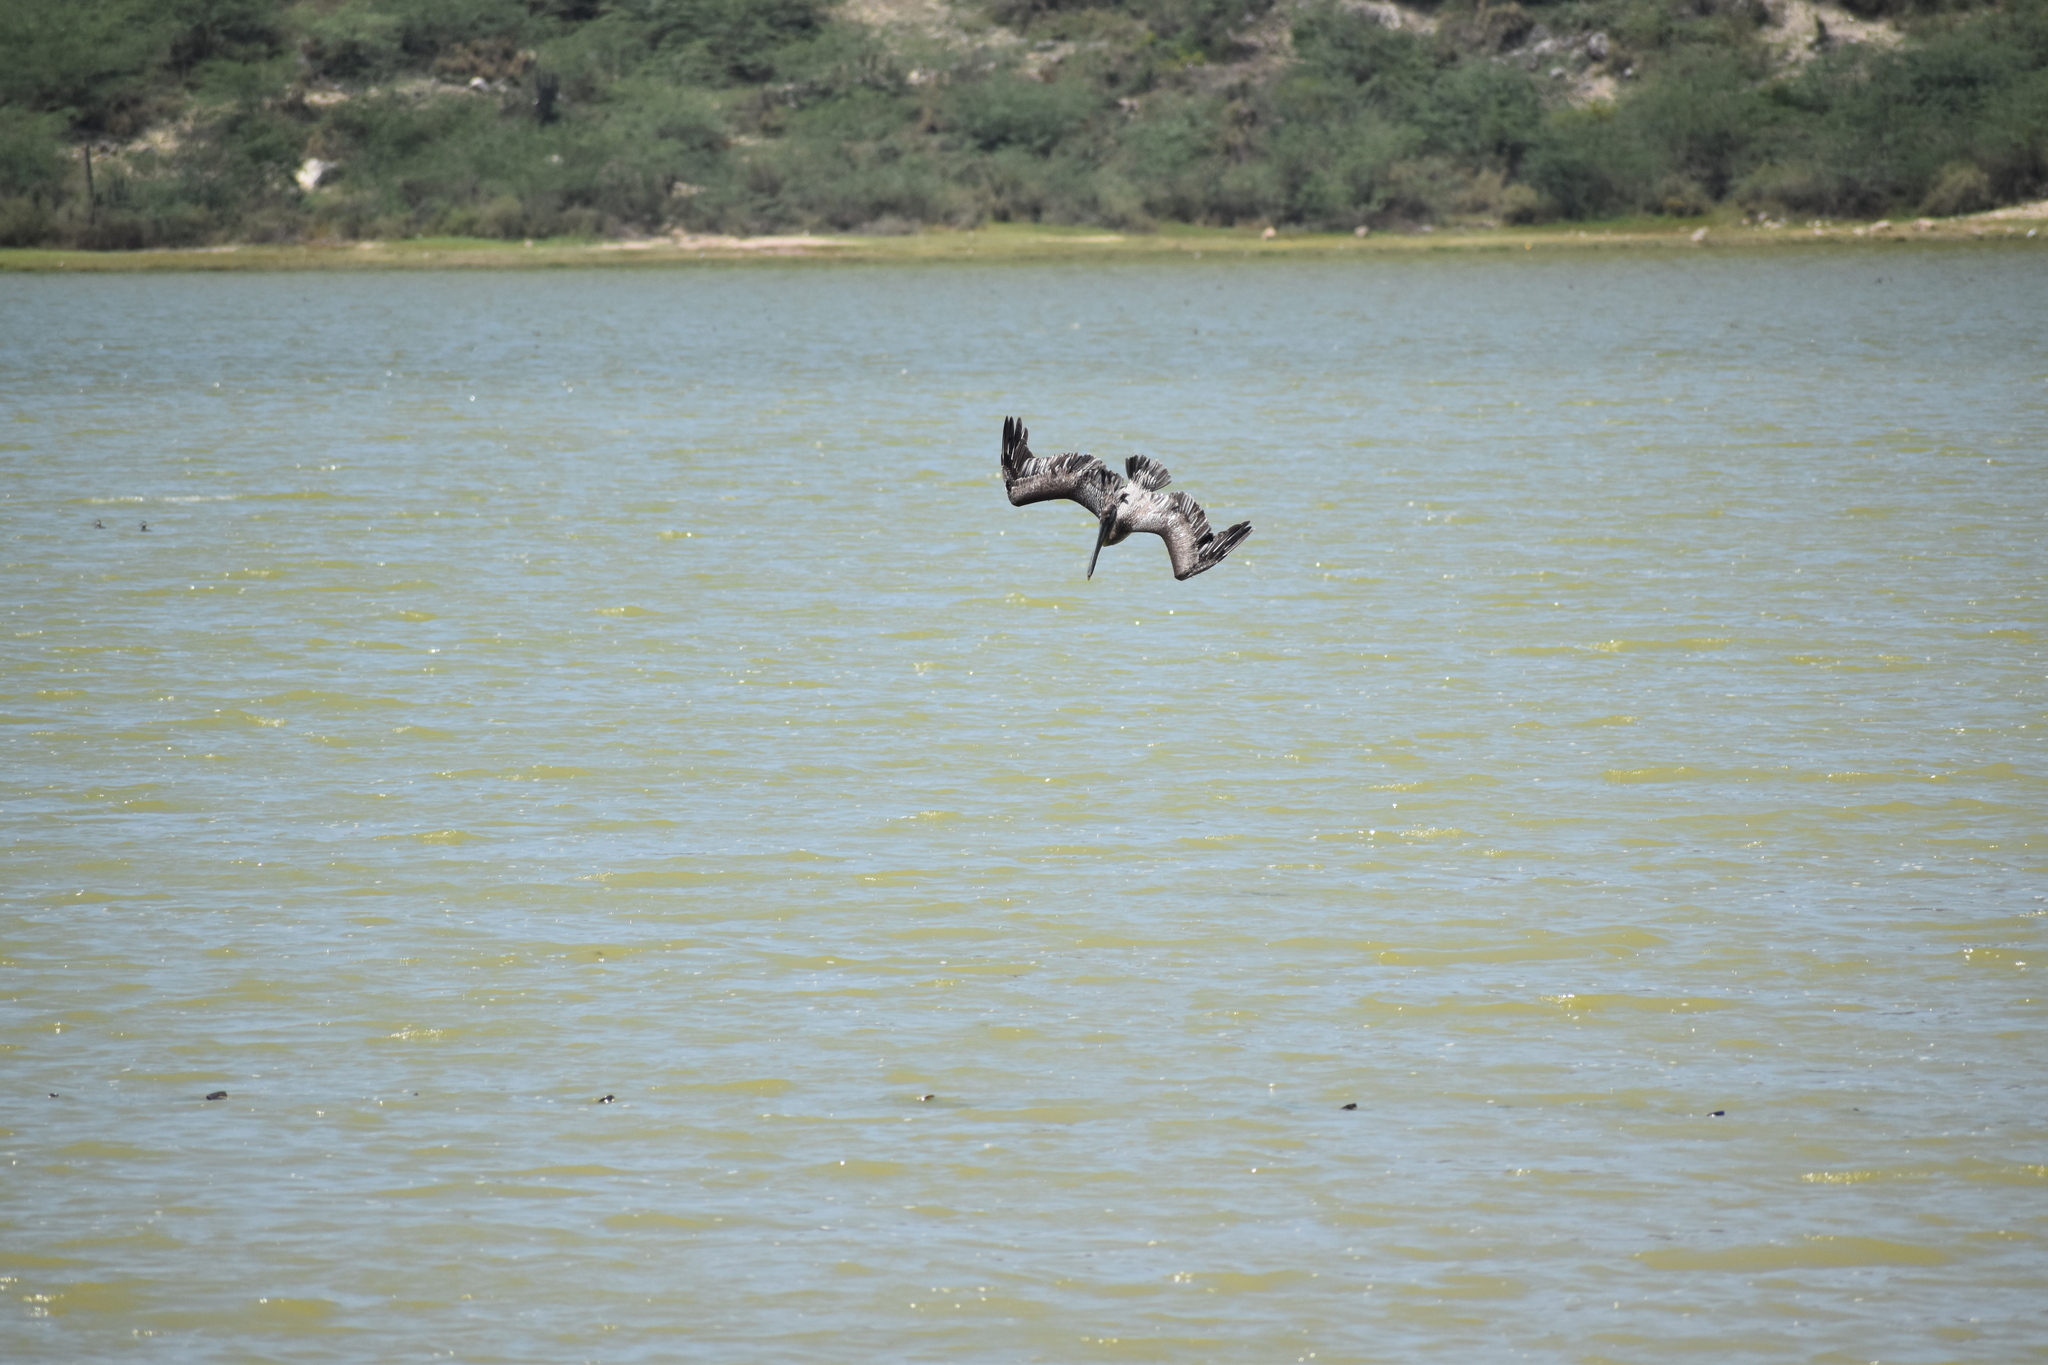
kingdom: Animalia
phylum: Chordata
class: Aves
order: Pelecaniformes
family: Pelecanidae
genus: Pelecanus
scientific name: Pelecanus occidentalis
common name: Brown pelican
